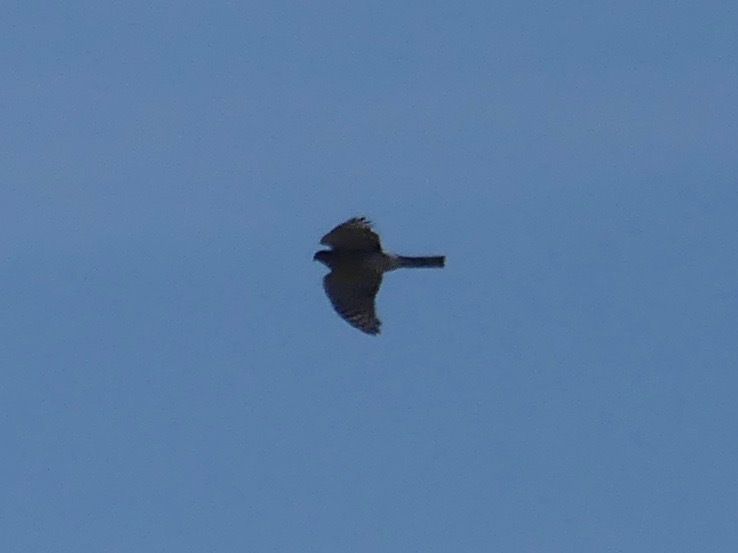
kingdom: Animalia
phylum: Chordata
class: Aves
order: Accipitriformes
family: Accipitridae
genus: Accipiter
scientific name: Accipiter striatus
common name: Sharp-shinned hawk
